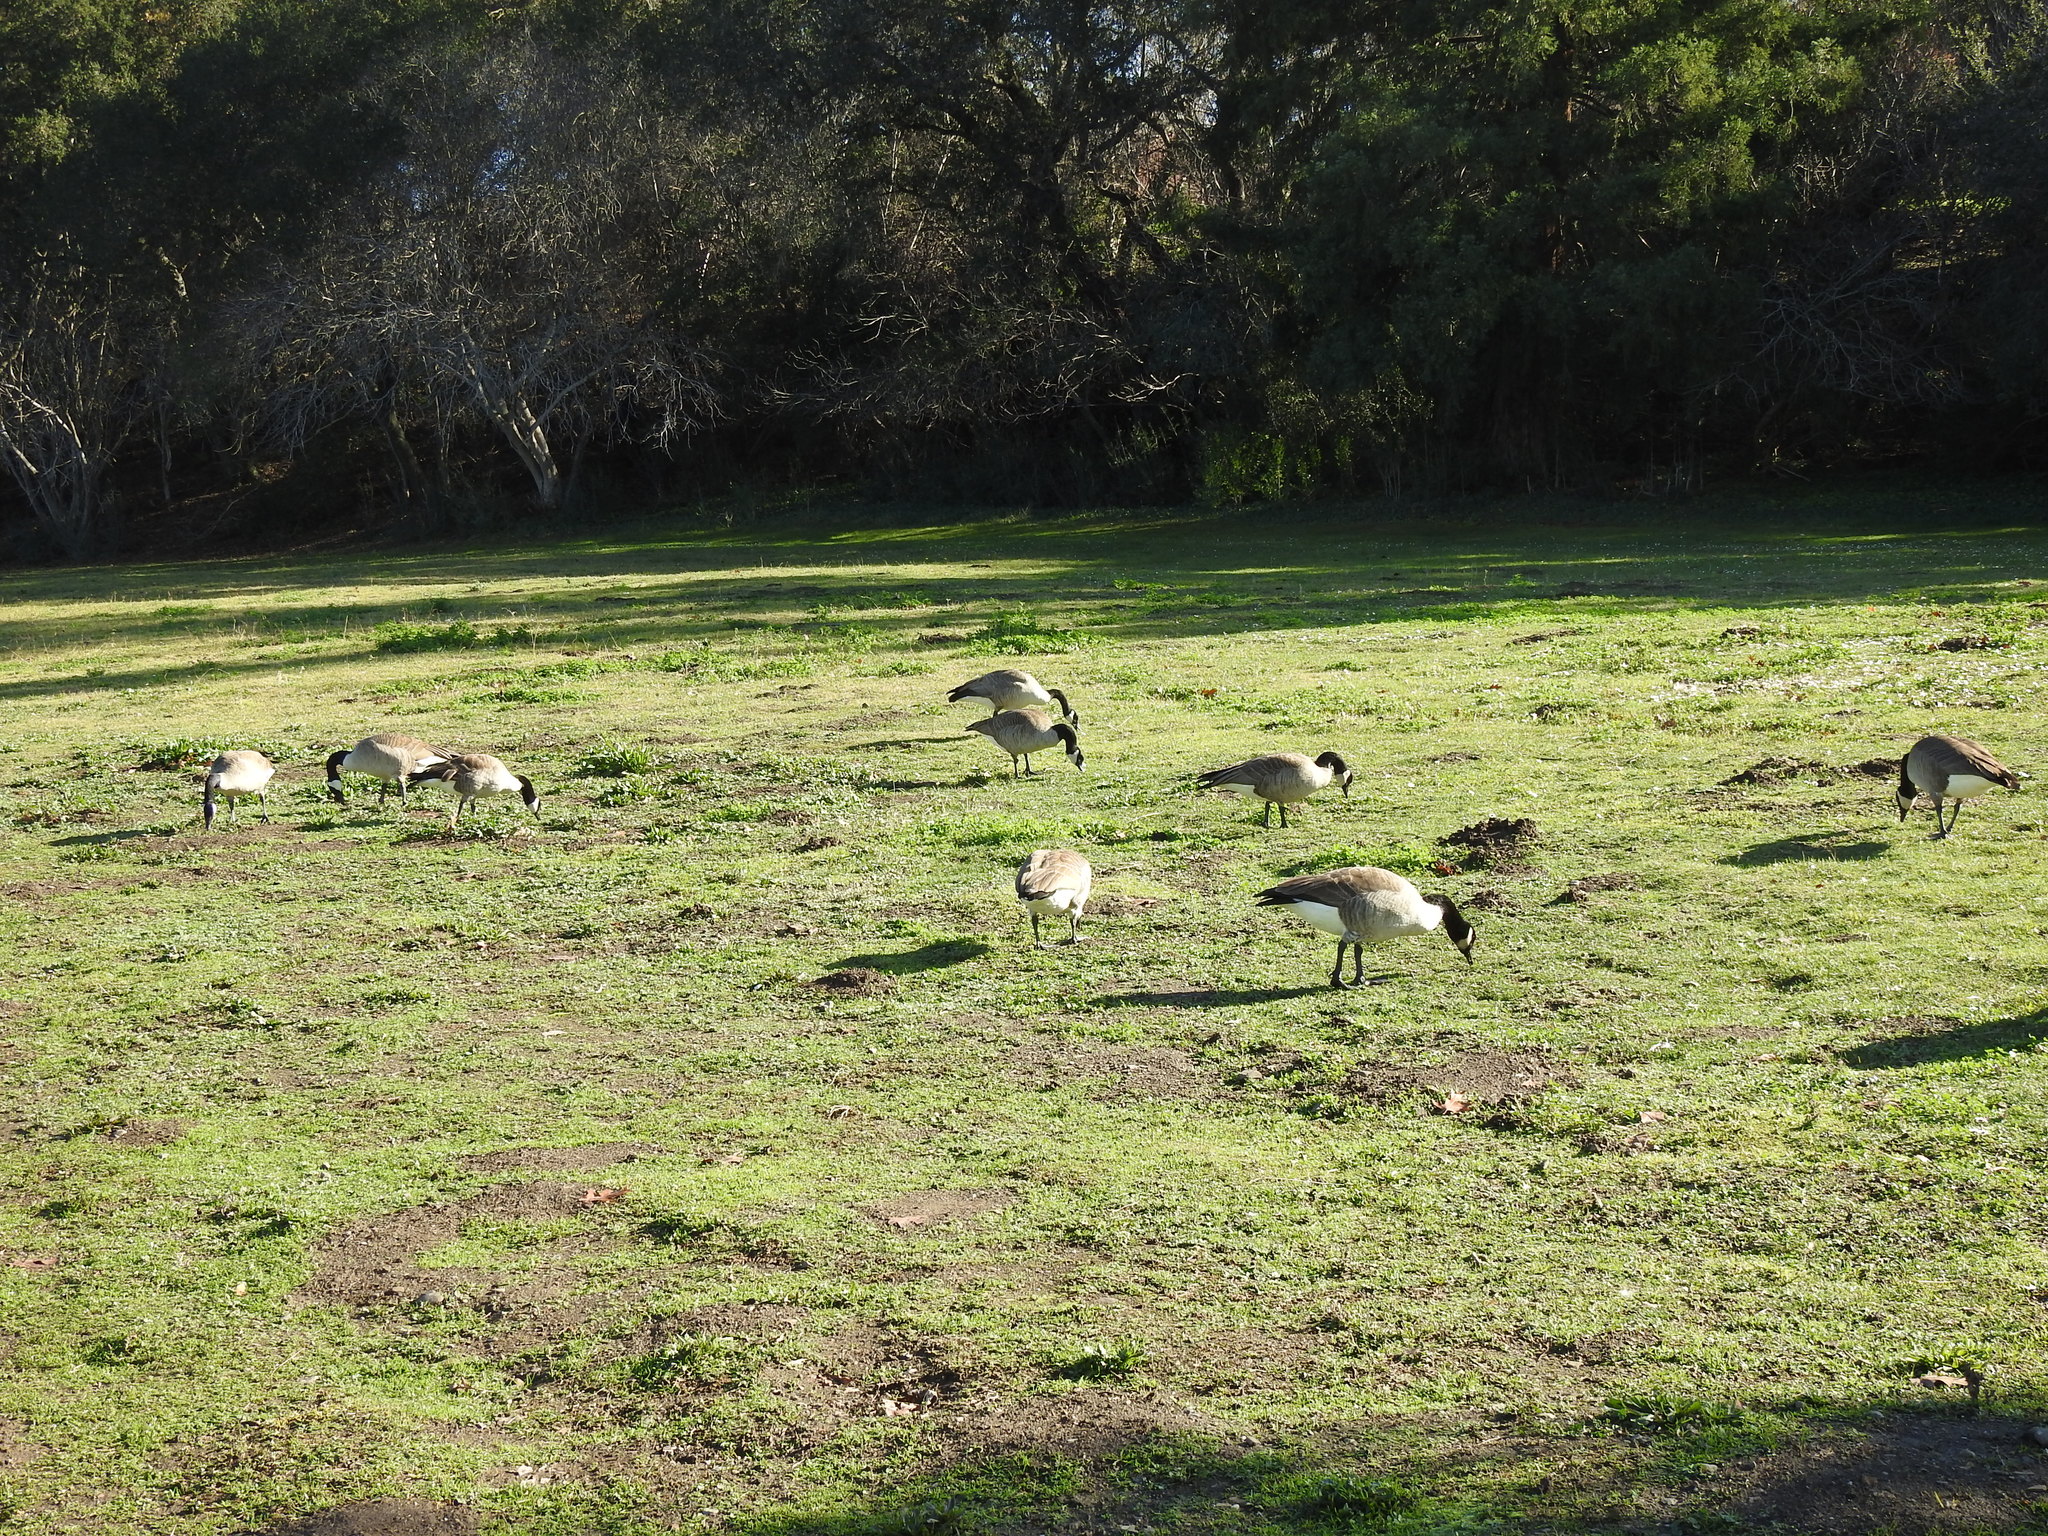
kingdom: Animalia
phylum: Chordata
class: Aves
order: Anseriformes
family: Anatidae
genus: Branta
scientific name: Branta canadensis
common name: Canada goose
